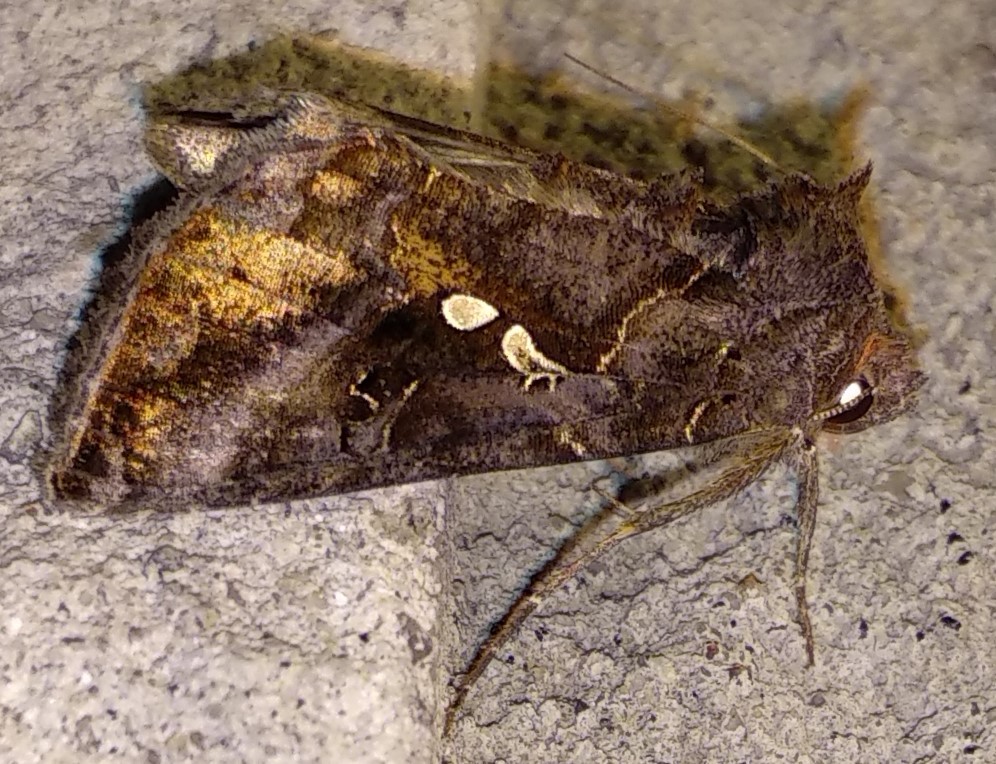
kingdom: Animalia
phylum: Arthropoda
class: Insecta
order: Lepidoptera
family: Noctuidae
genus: Autographa
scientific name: Autographa precationis
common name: Common looper moth
